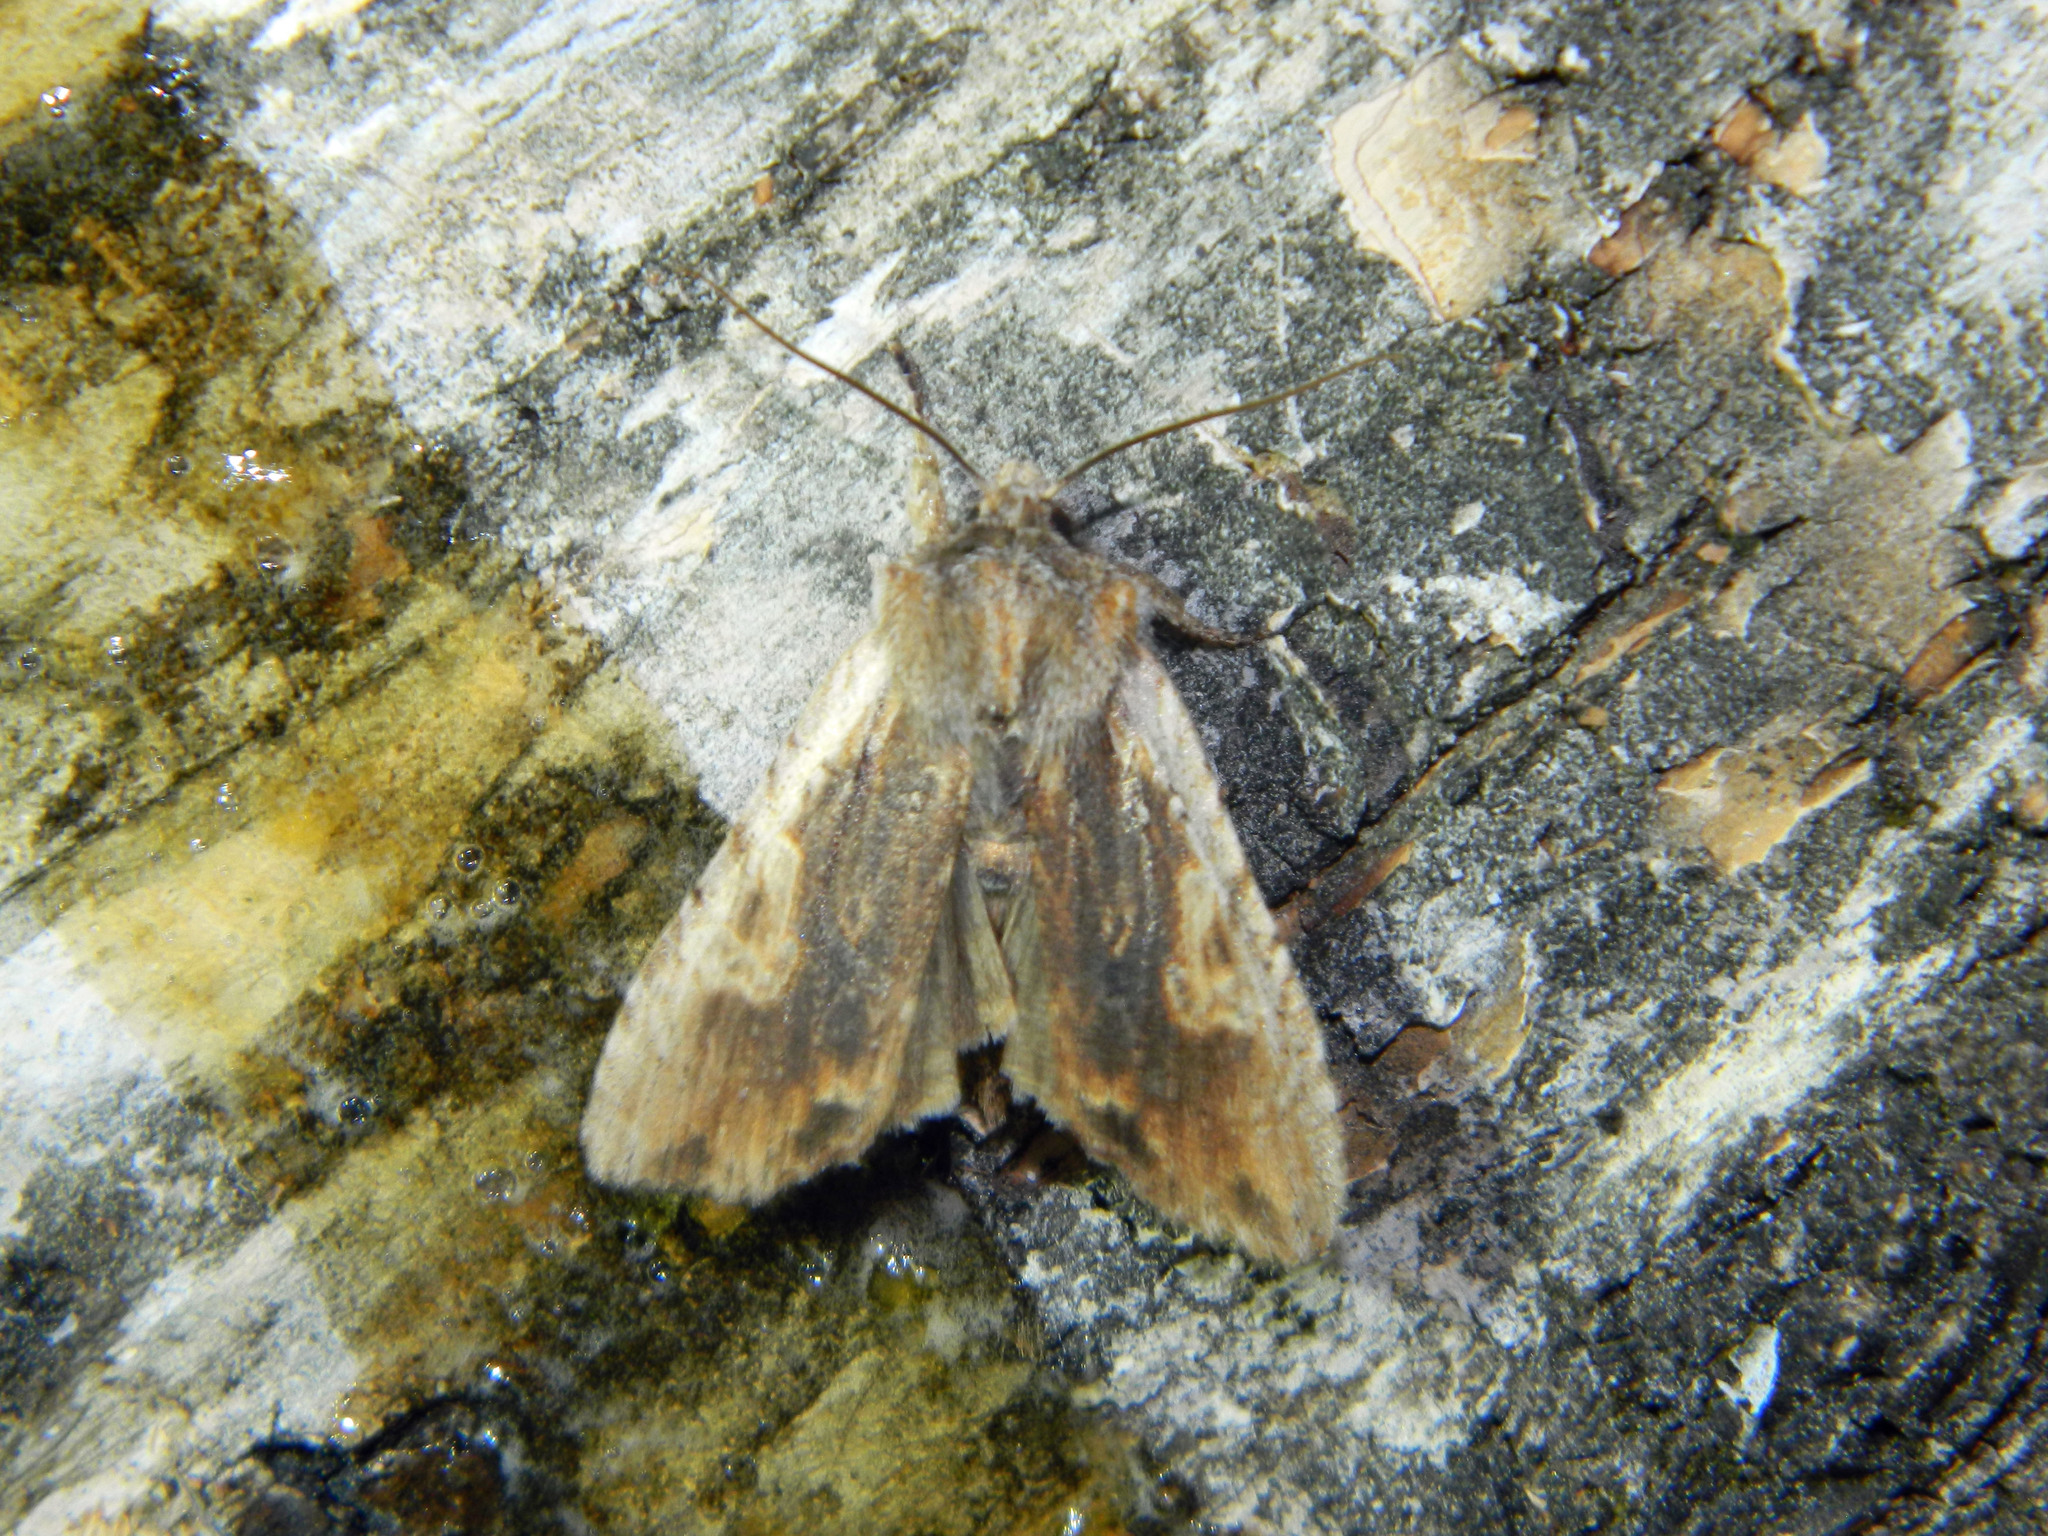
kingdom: Animalia
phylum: Arthropoda
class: Insecta
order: Lepidoptera
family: Noctuidae
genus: Lithophane
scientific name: Lithophane petulca
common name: Wanton pinion
